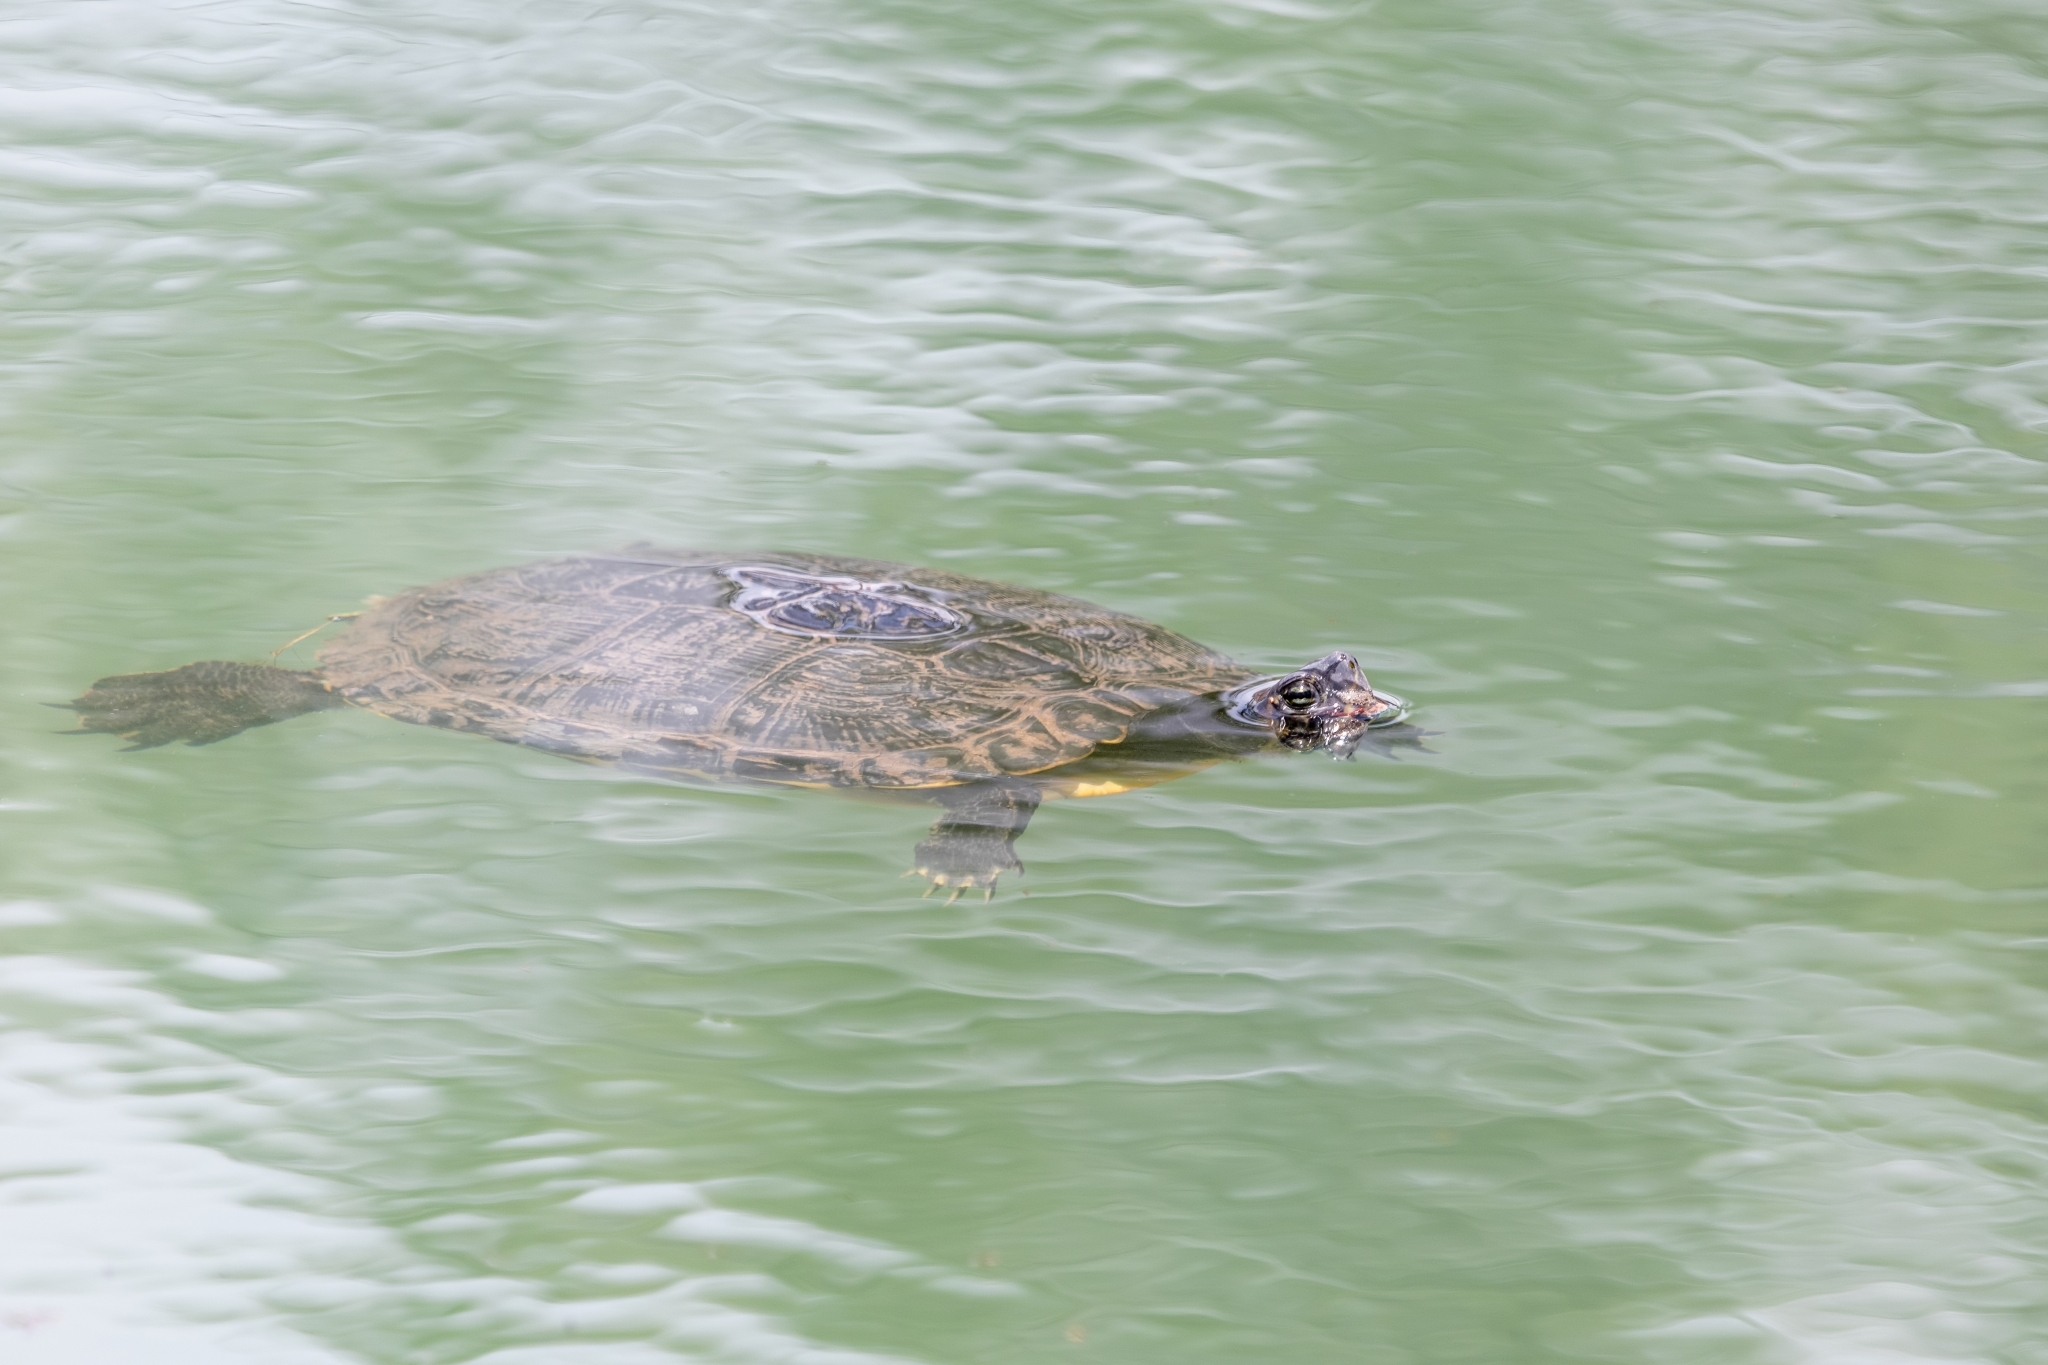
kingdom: Animalia
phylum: Chordata
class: Testudines
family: Emydidae
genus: Trachemys
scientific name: Trachemys scripta
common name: Slider
